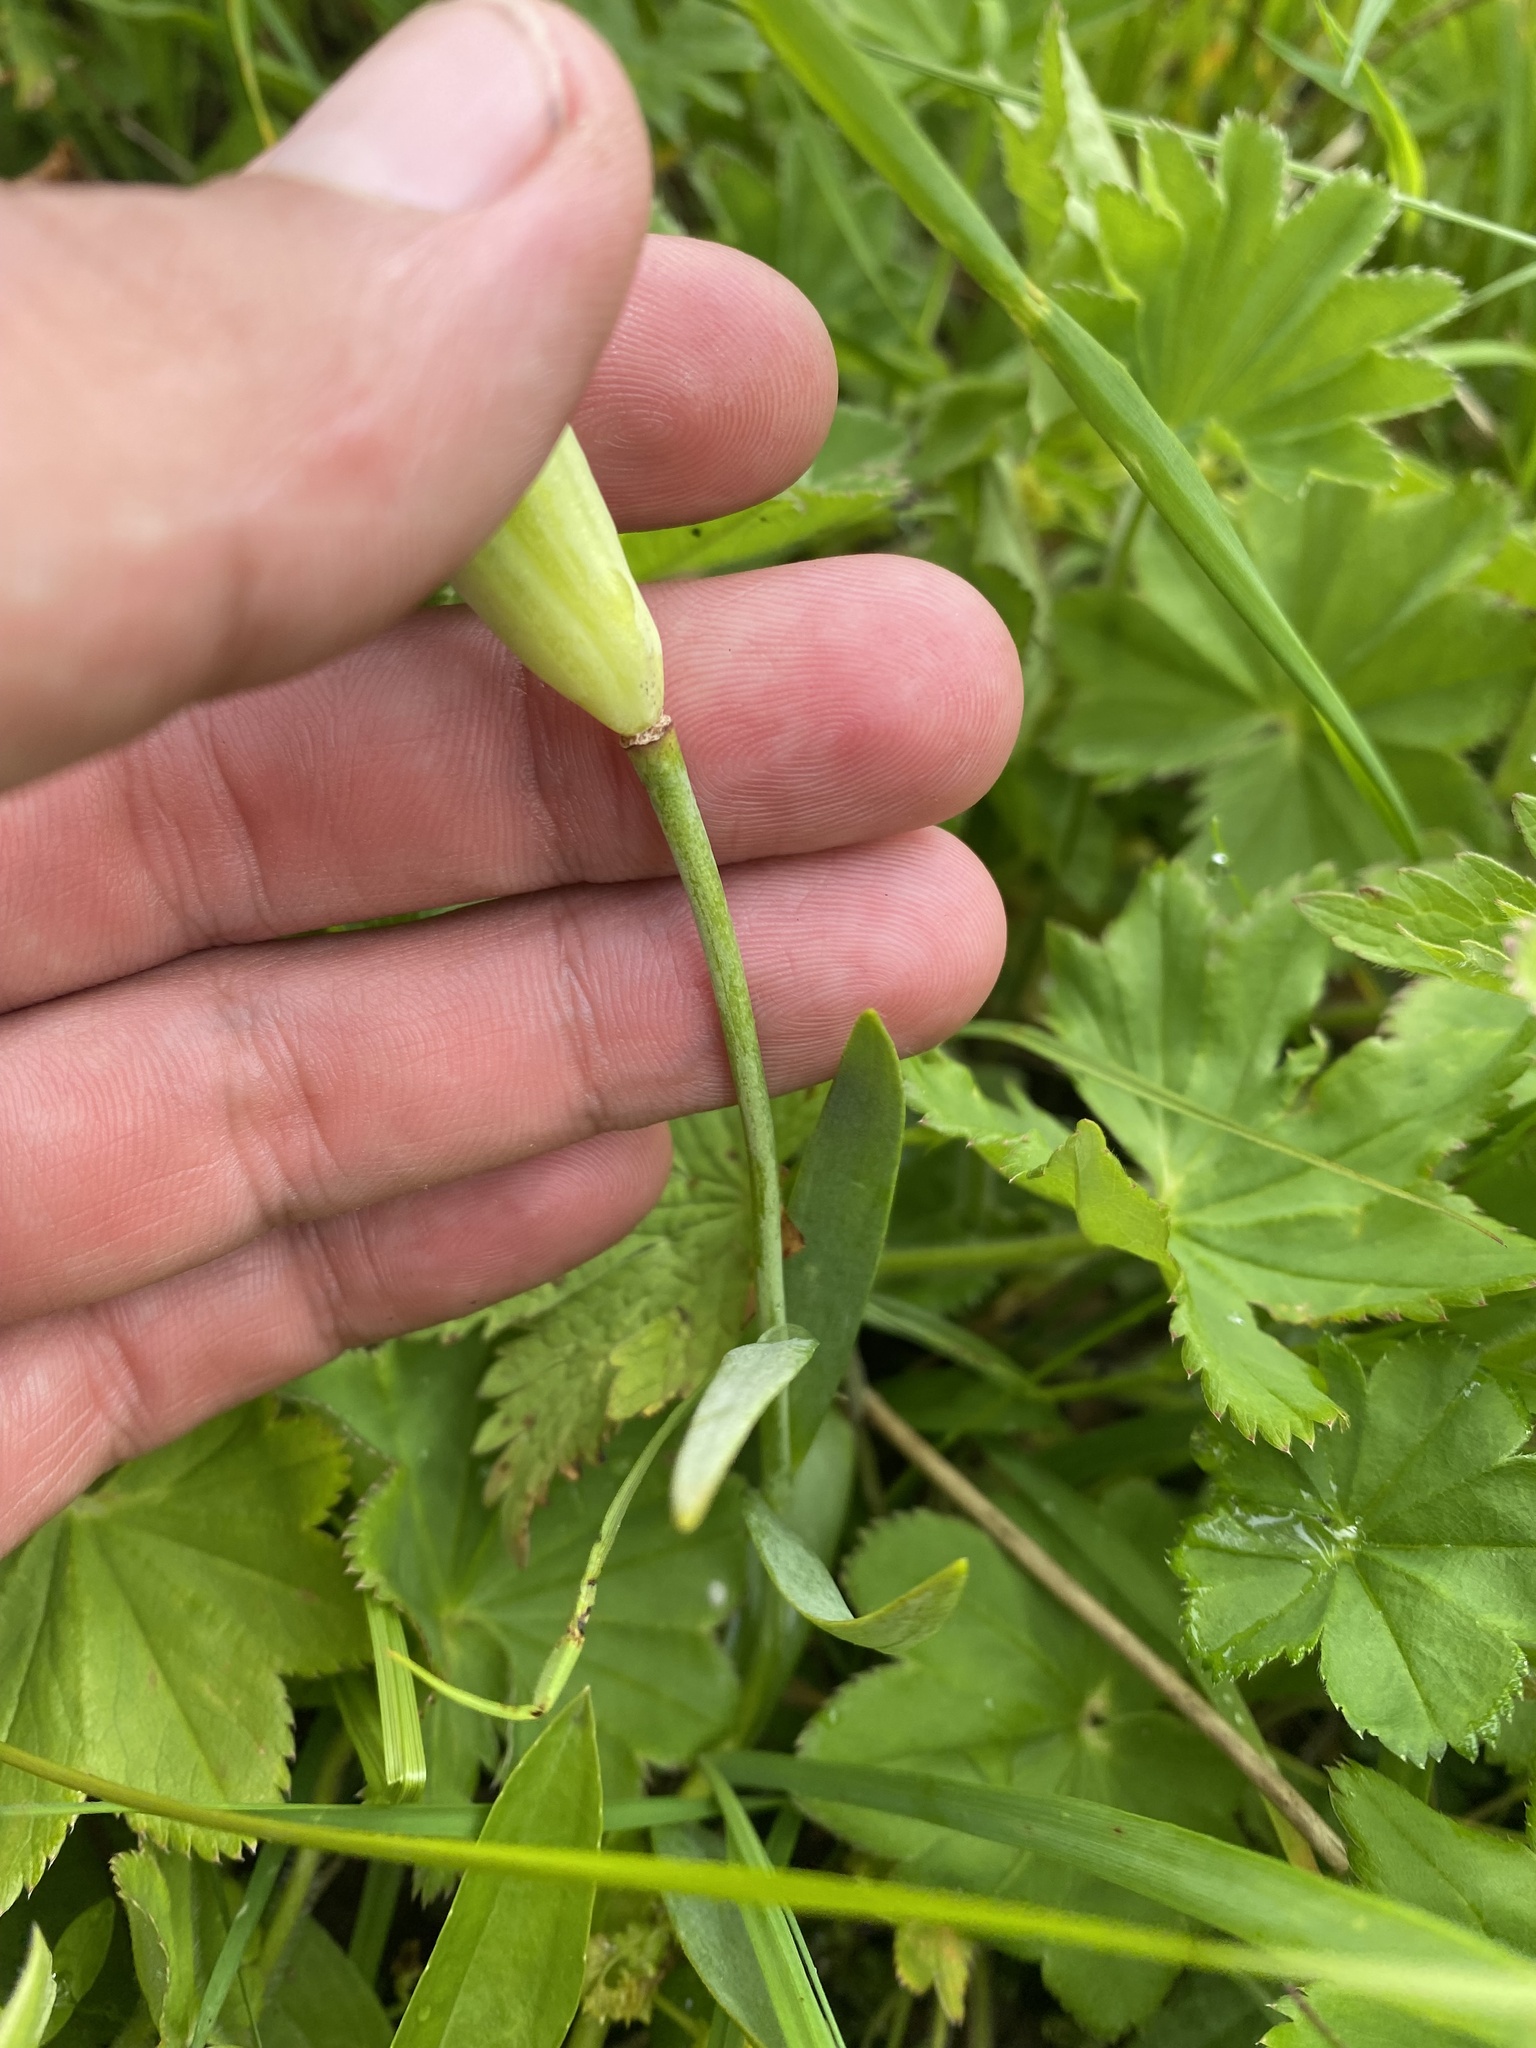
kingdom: Plantae
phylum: Tracheophyta
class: Liliopsida
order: Liliales
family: Liliaceae
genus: Fritillaria
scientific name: Fritillaria collina
